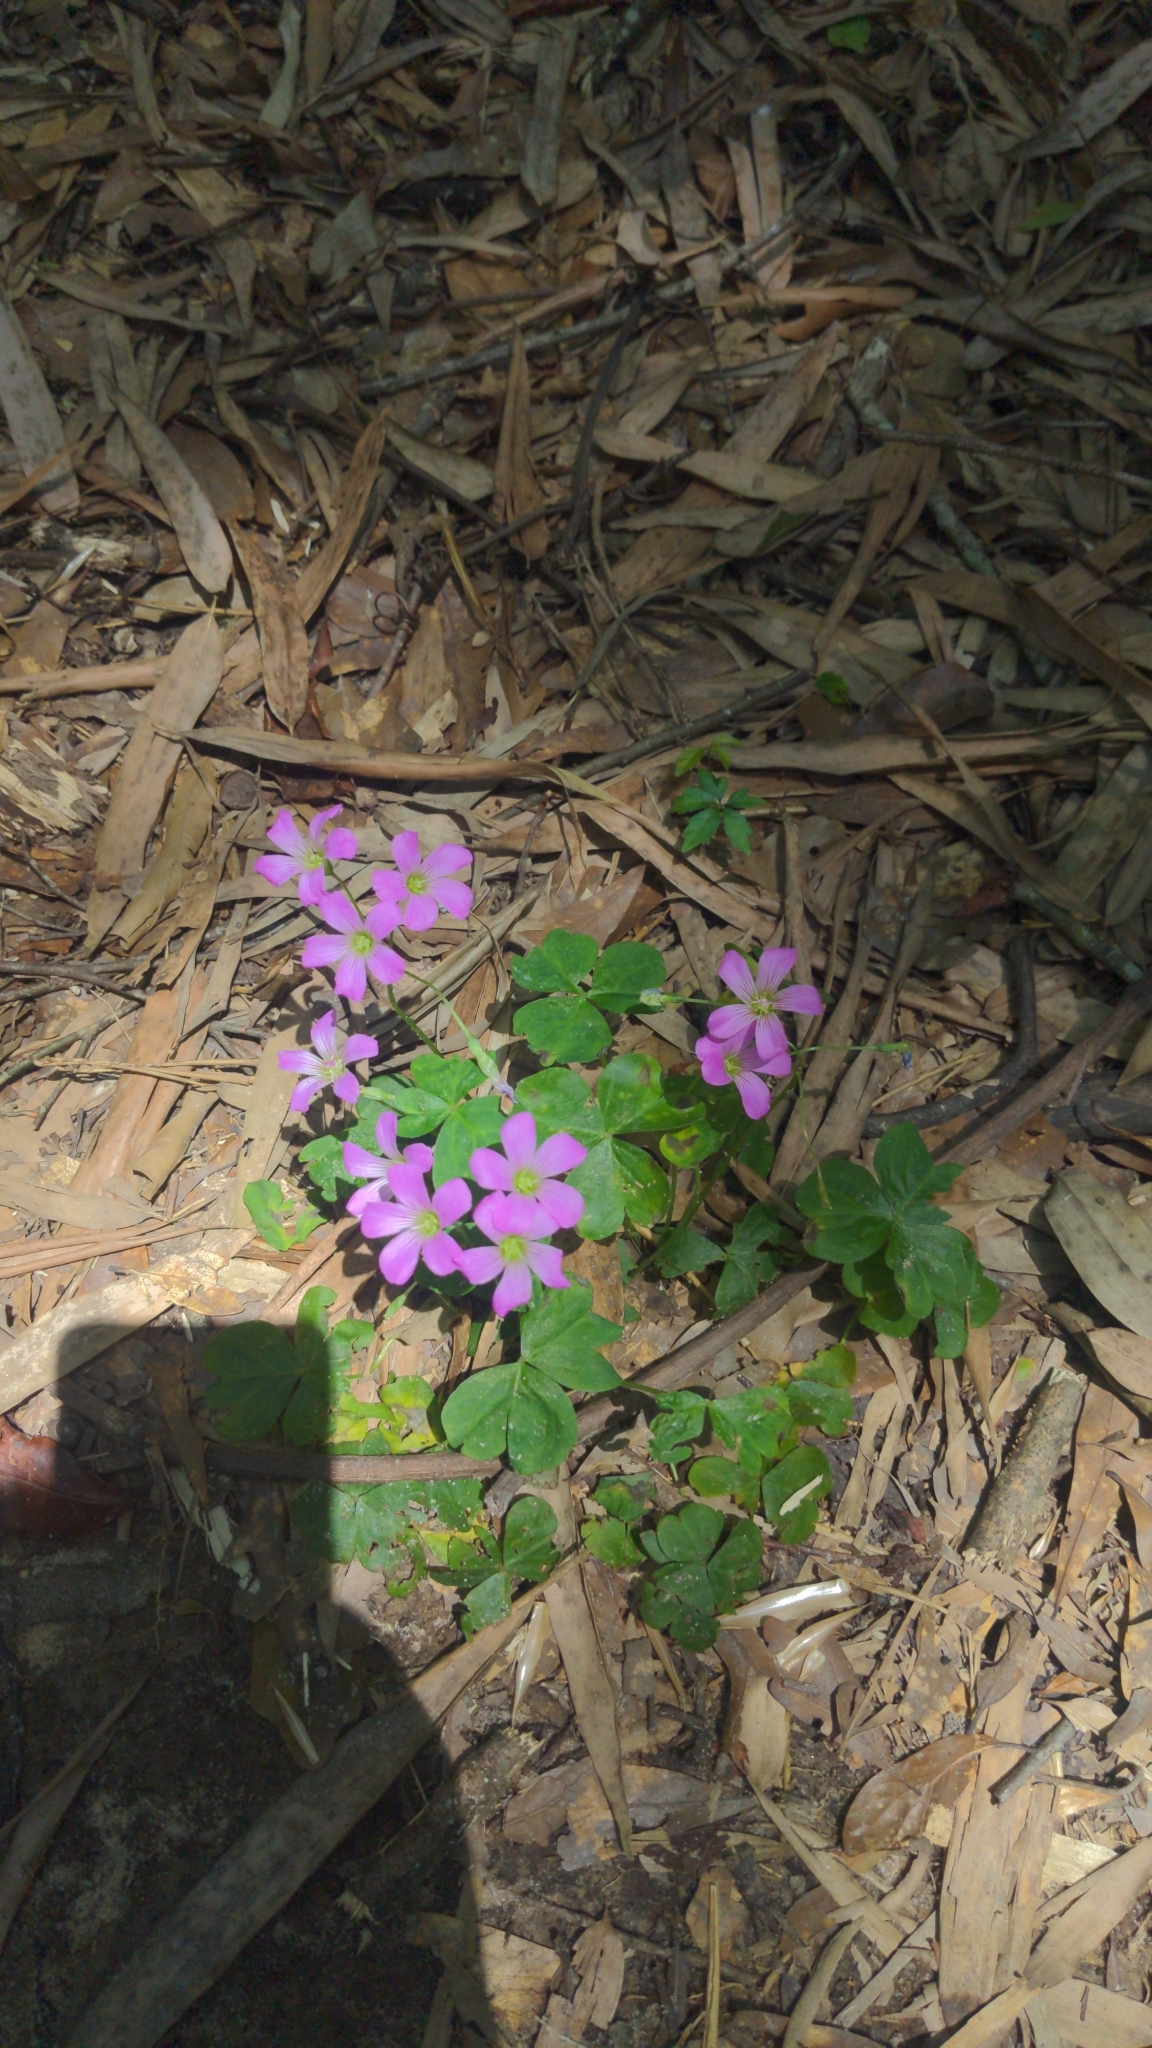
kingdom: Plantae
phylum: Tracheophyta
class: Magnoliopsida
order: Oxalidales
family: Oxalidaceae
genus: Oxalis
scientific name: Oxalis debilis
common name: Large-flowered pink-sorrel
